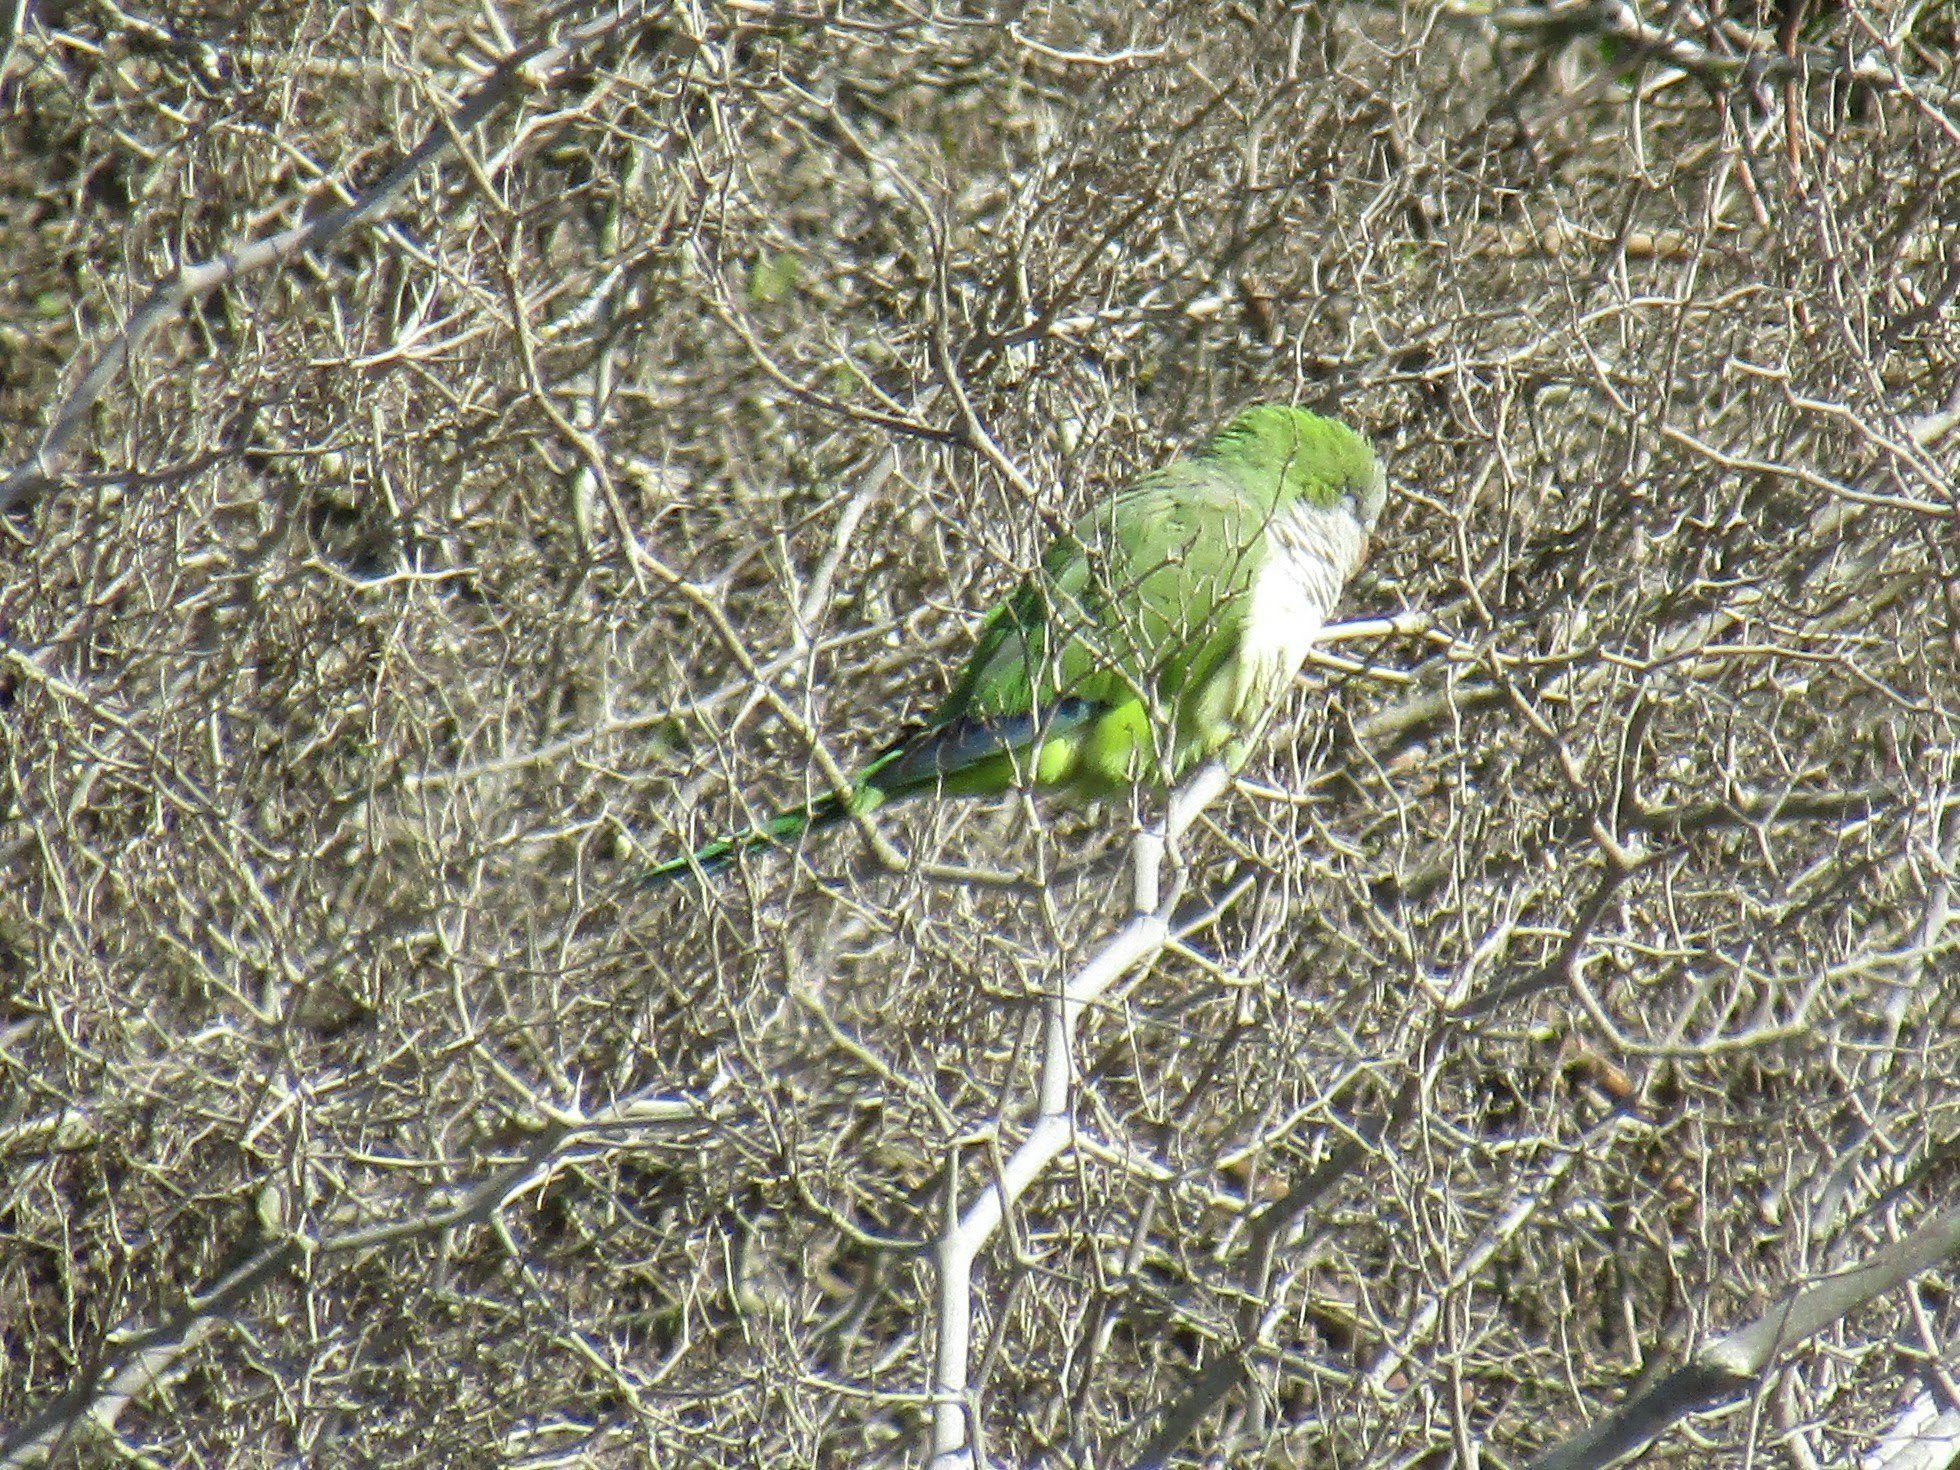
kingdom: Animalia
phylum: Chordata
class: Aves
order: Psittaciformes
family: Psittacidae
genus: Myiopsitta
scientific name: Myiopsitta monachus
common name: Monk parakeet
